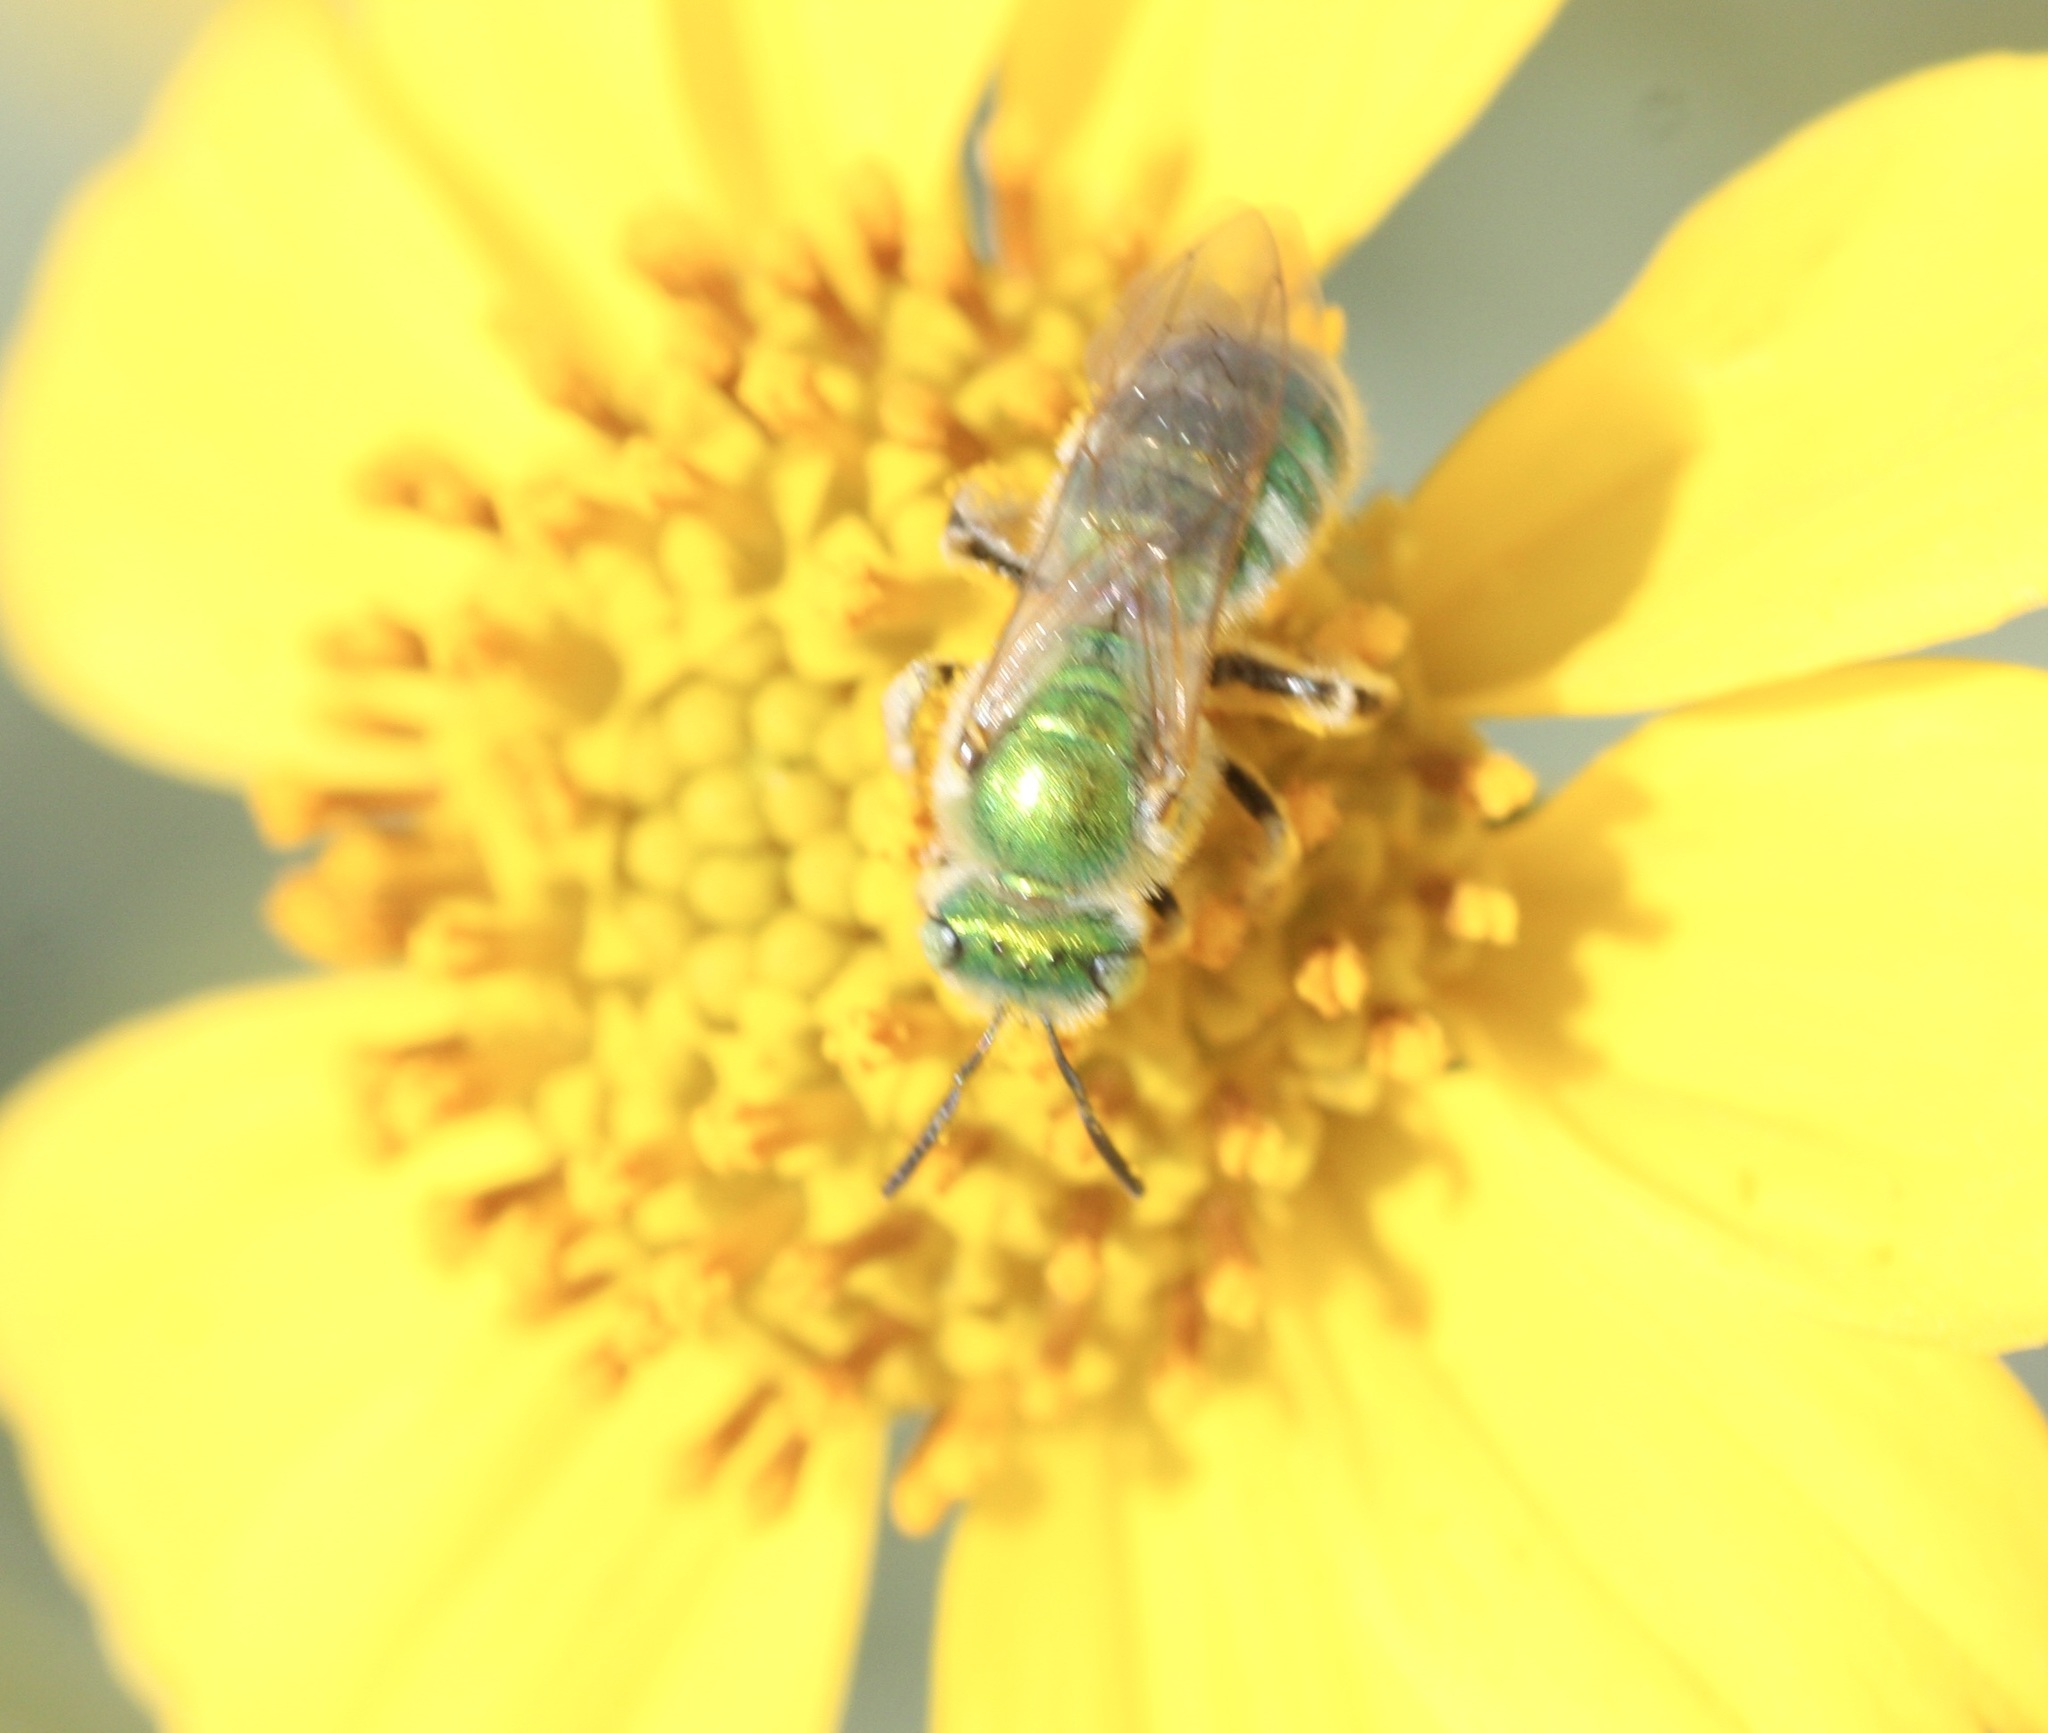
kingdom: Animalia
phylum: Arthropoda
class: Insecta
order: Hymenoptera
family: Halictidae
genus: Agapostemon
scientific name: Agapostemon
